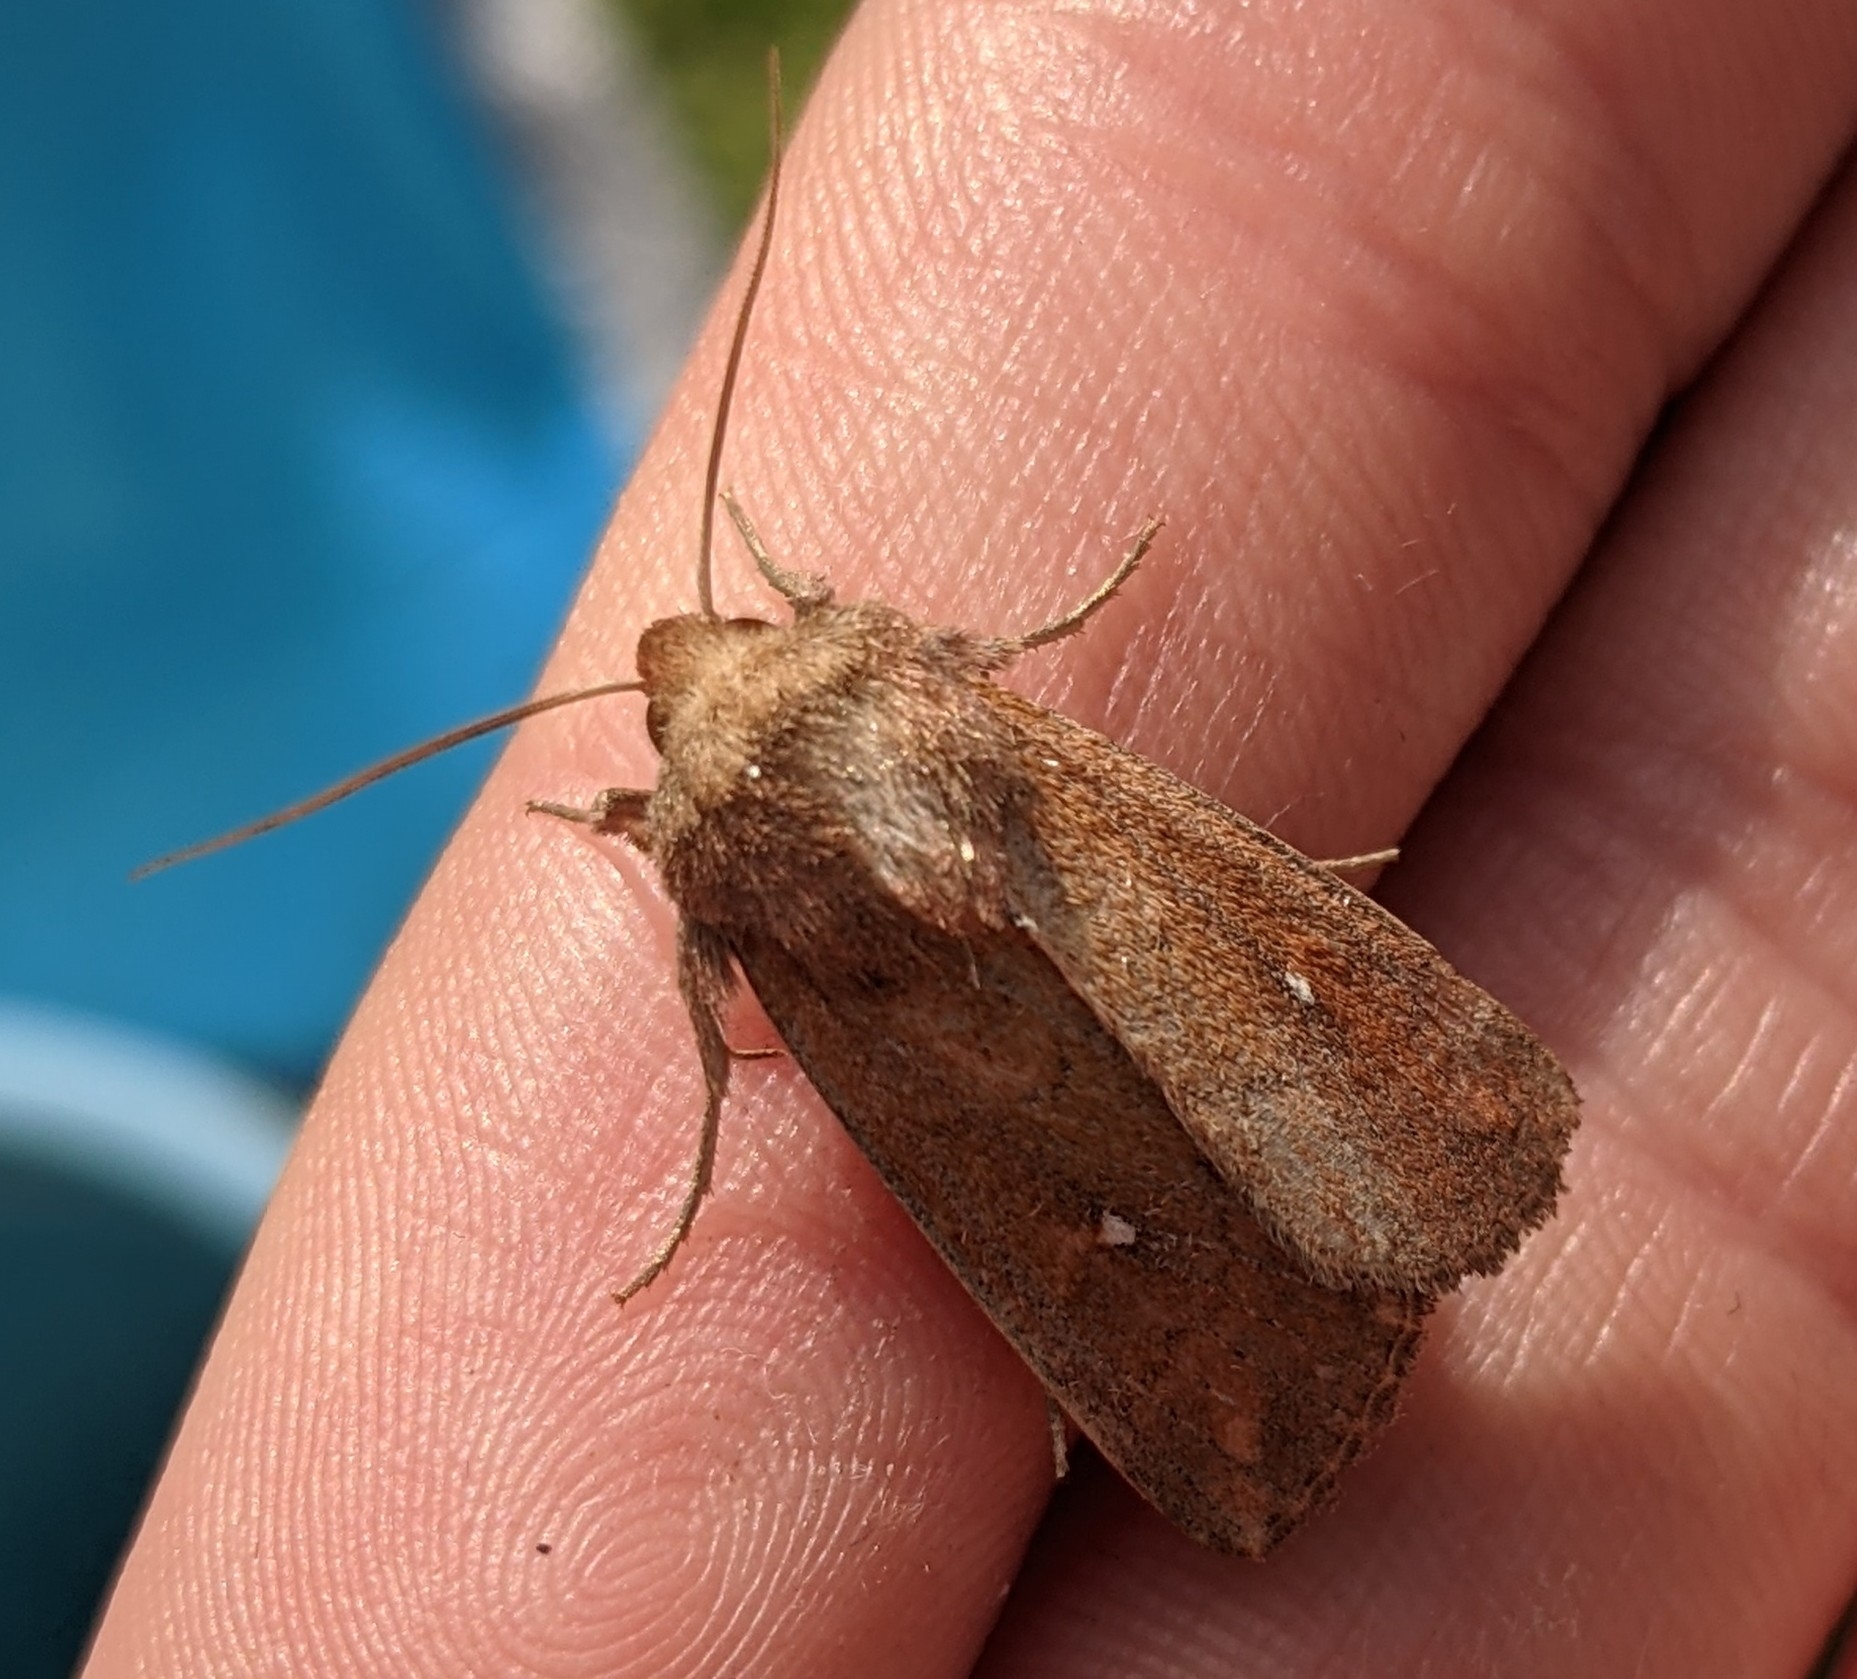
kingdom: Animalia
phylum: Arthropoda
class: Insecta
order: Lepidoptera
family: Noctuidae
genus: Mythimna
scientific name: Mythimna albipuncta
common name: White-point
